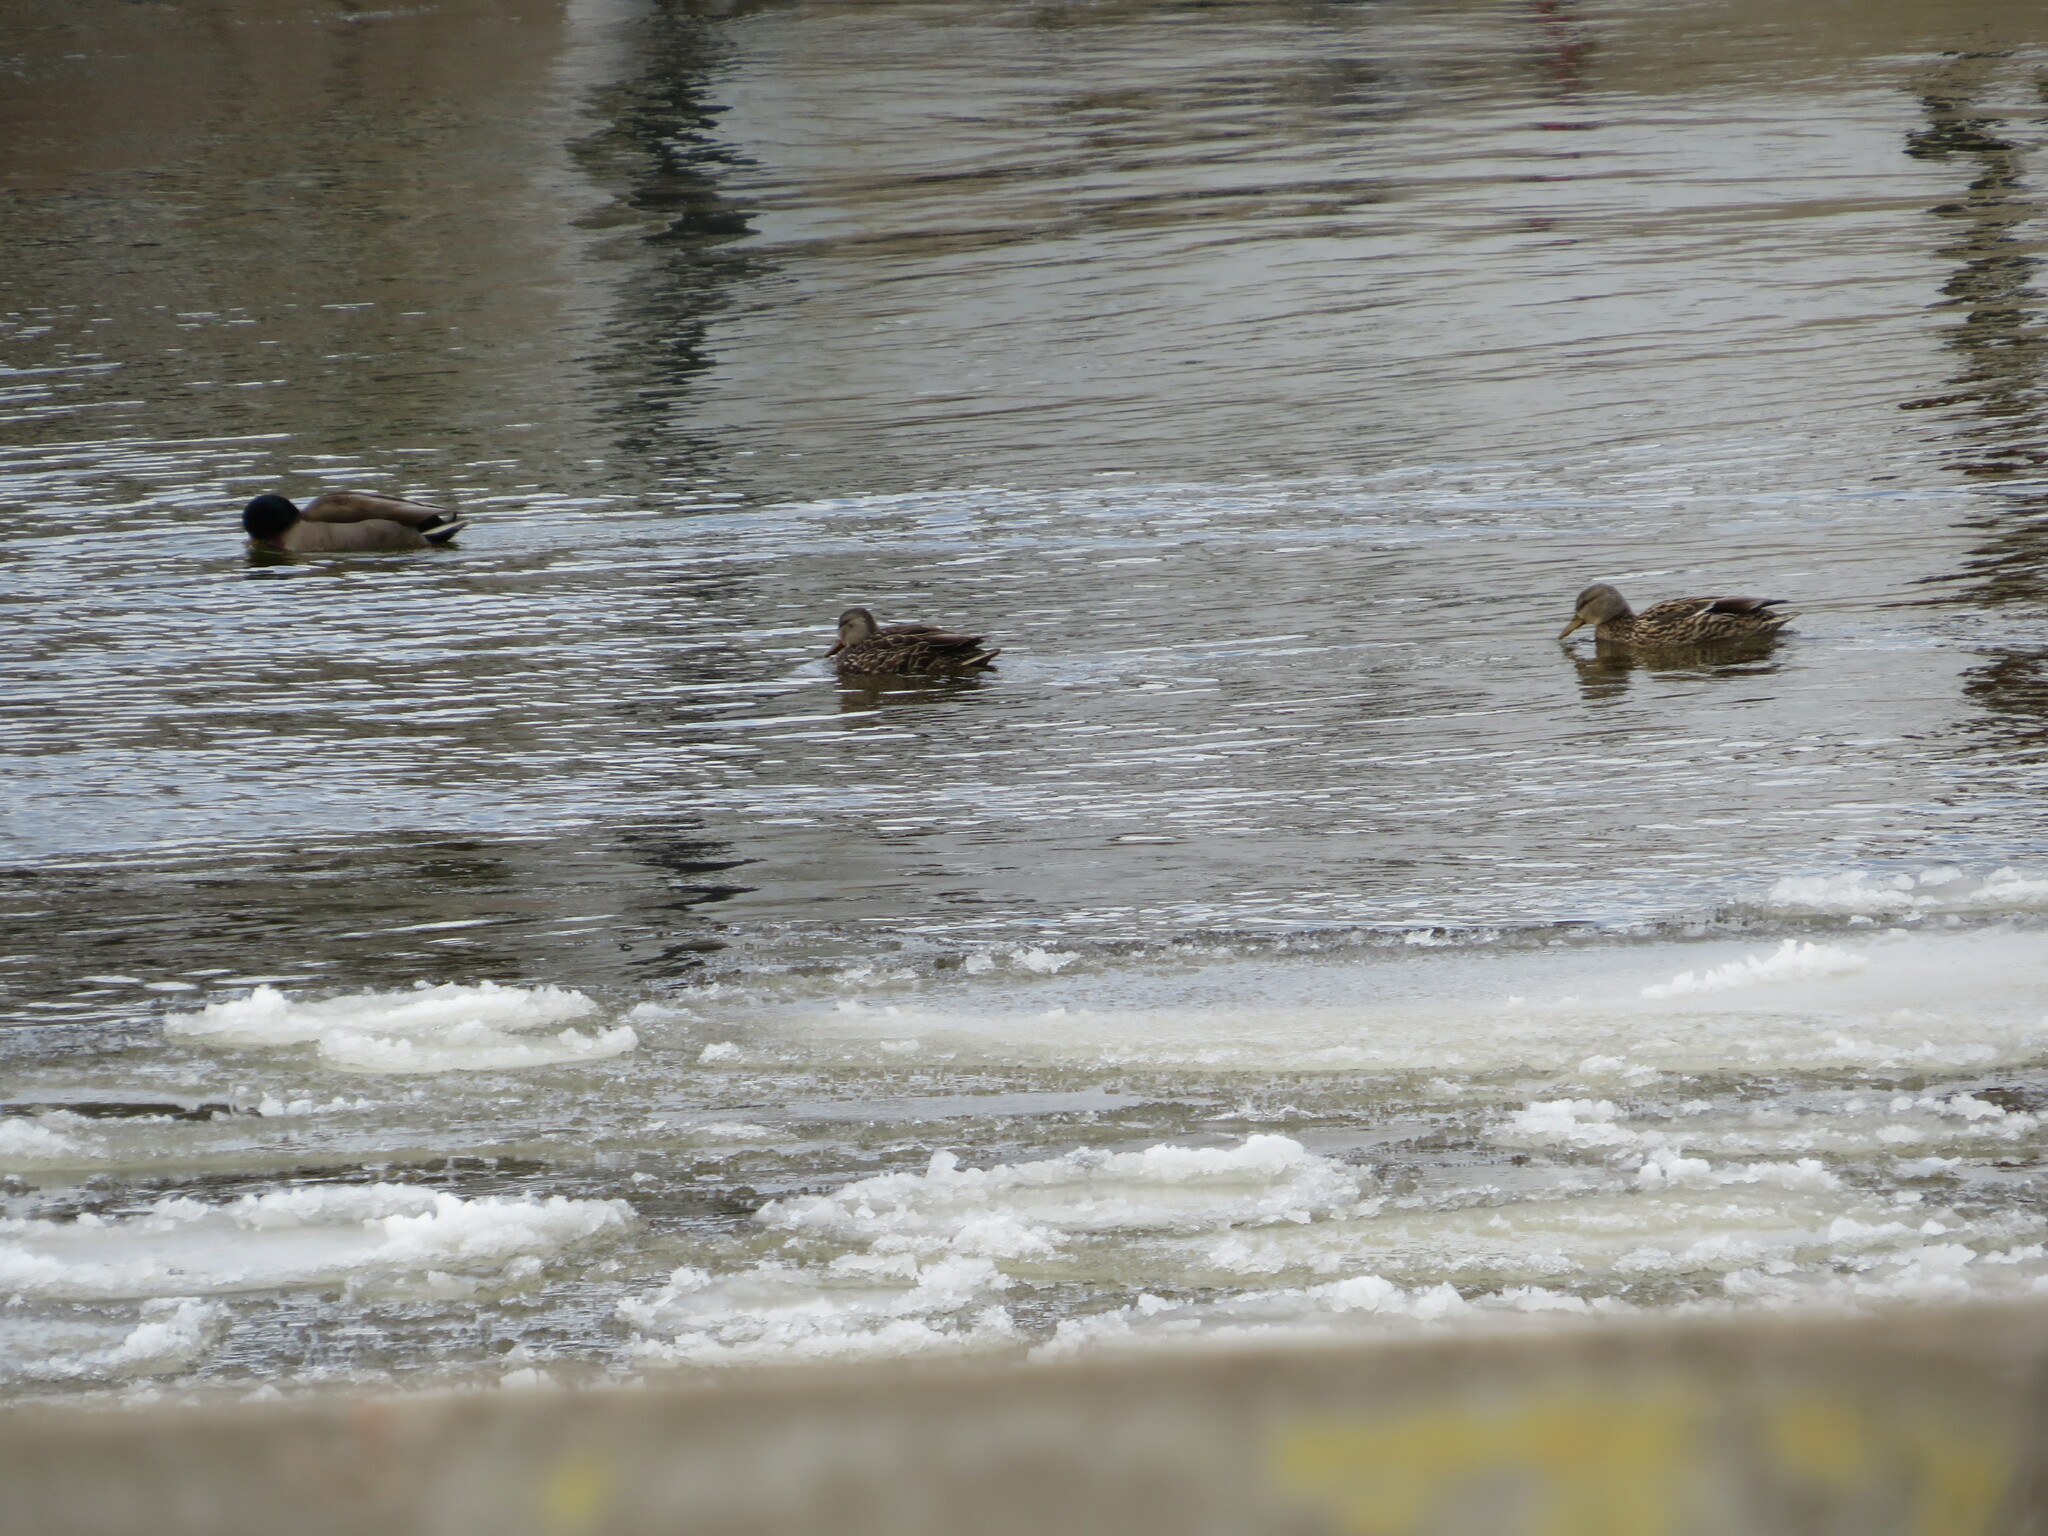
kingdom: Animalia
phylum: Chordata
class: Aves
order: Anseriformes
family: Anatidae
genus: Anas
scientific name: Anas platyrhynchos
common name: Mallard
